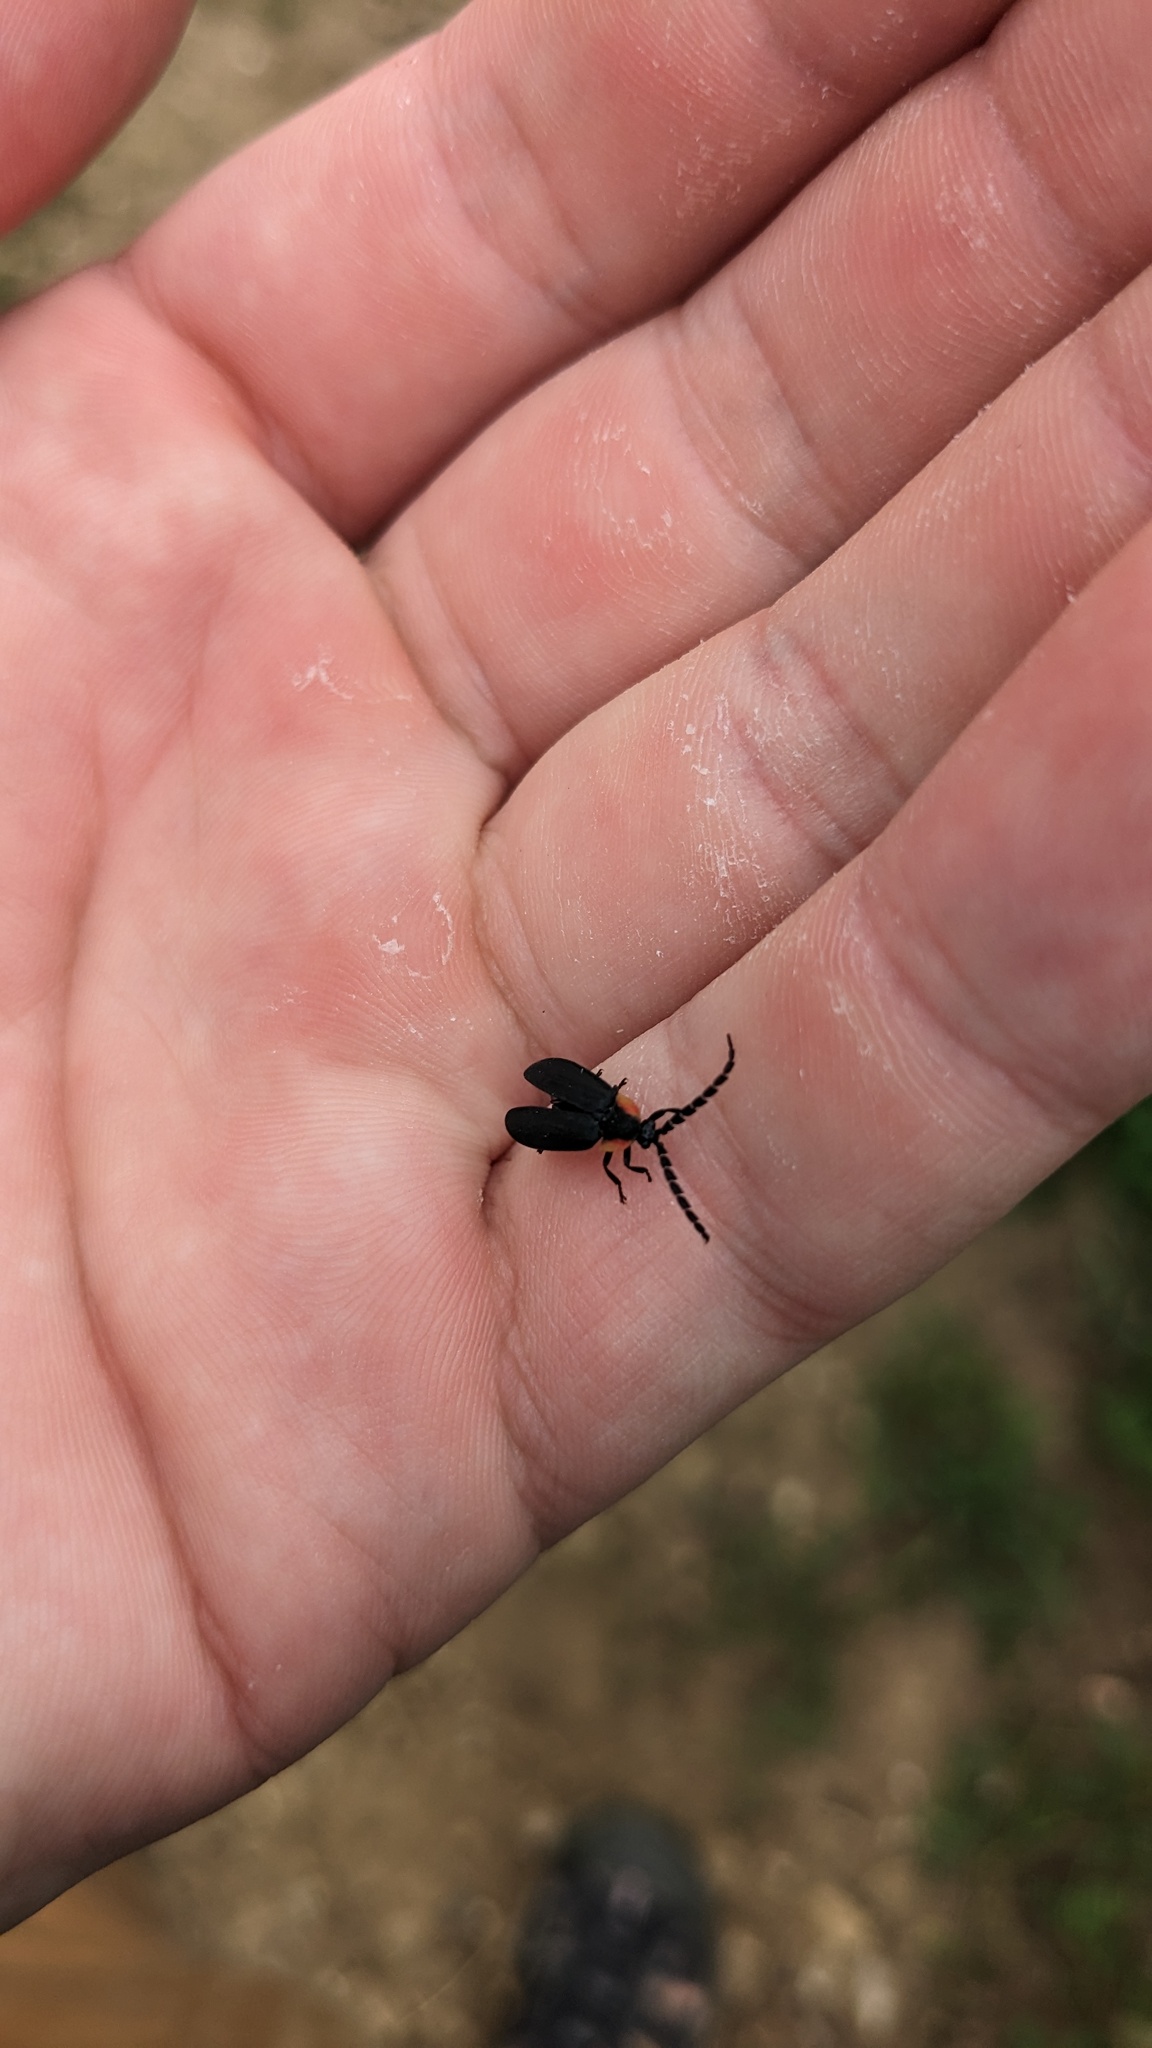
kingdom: Animalia
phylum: Arthropoda
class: Insecta
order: Coleoptera
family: Lampyridae
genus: Lucidota
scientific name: Lucidota atra
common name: Black firefly
